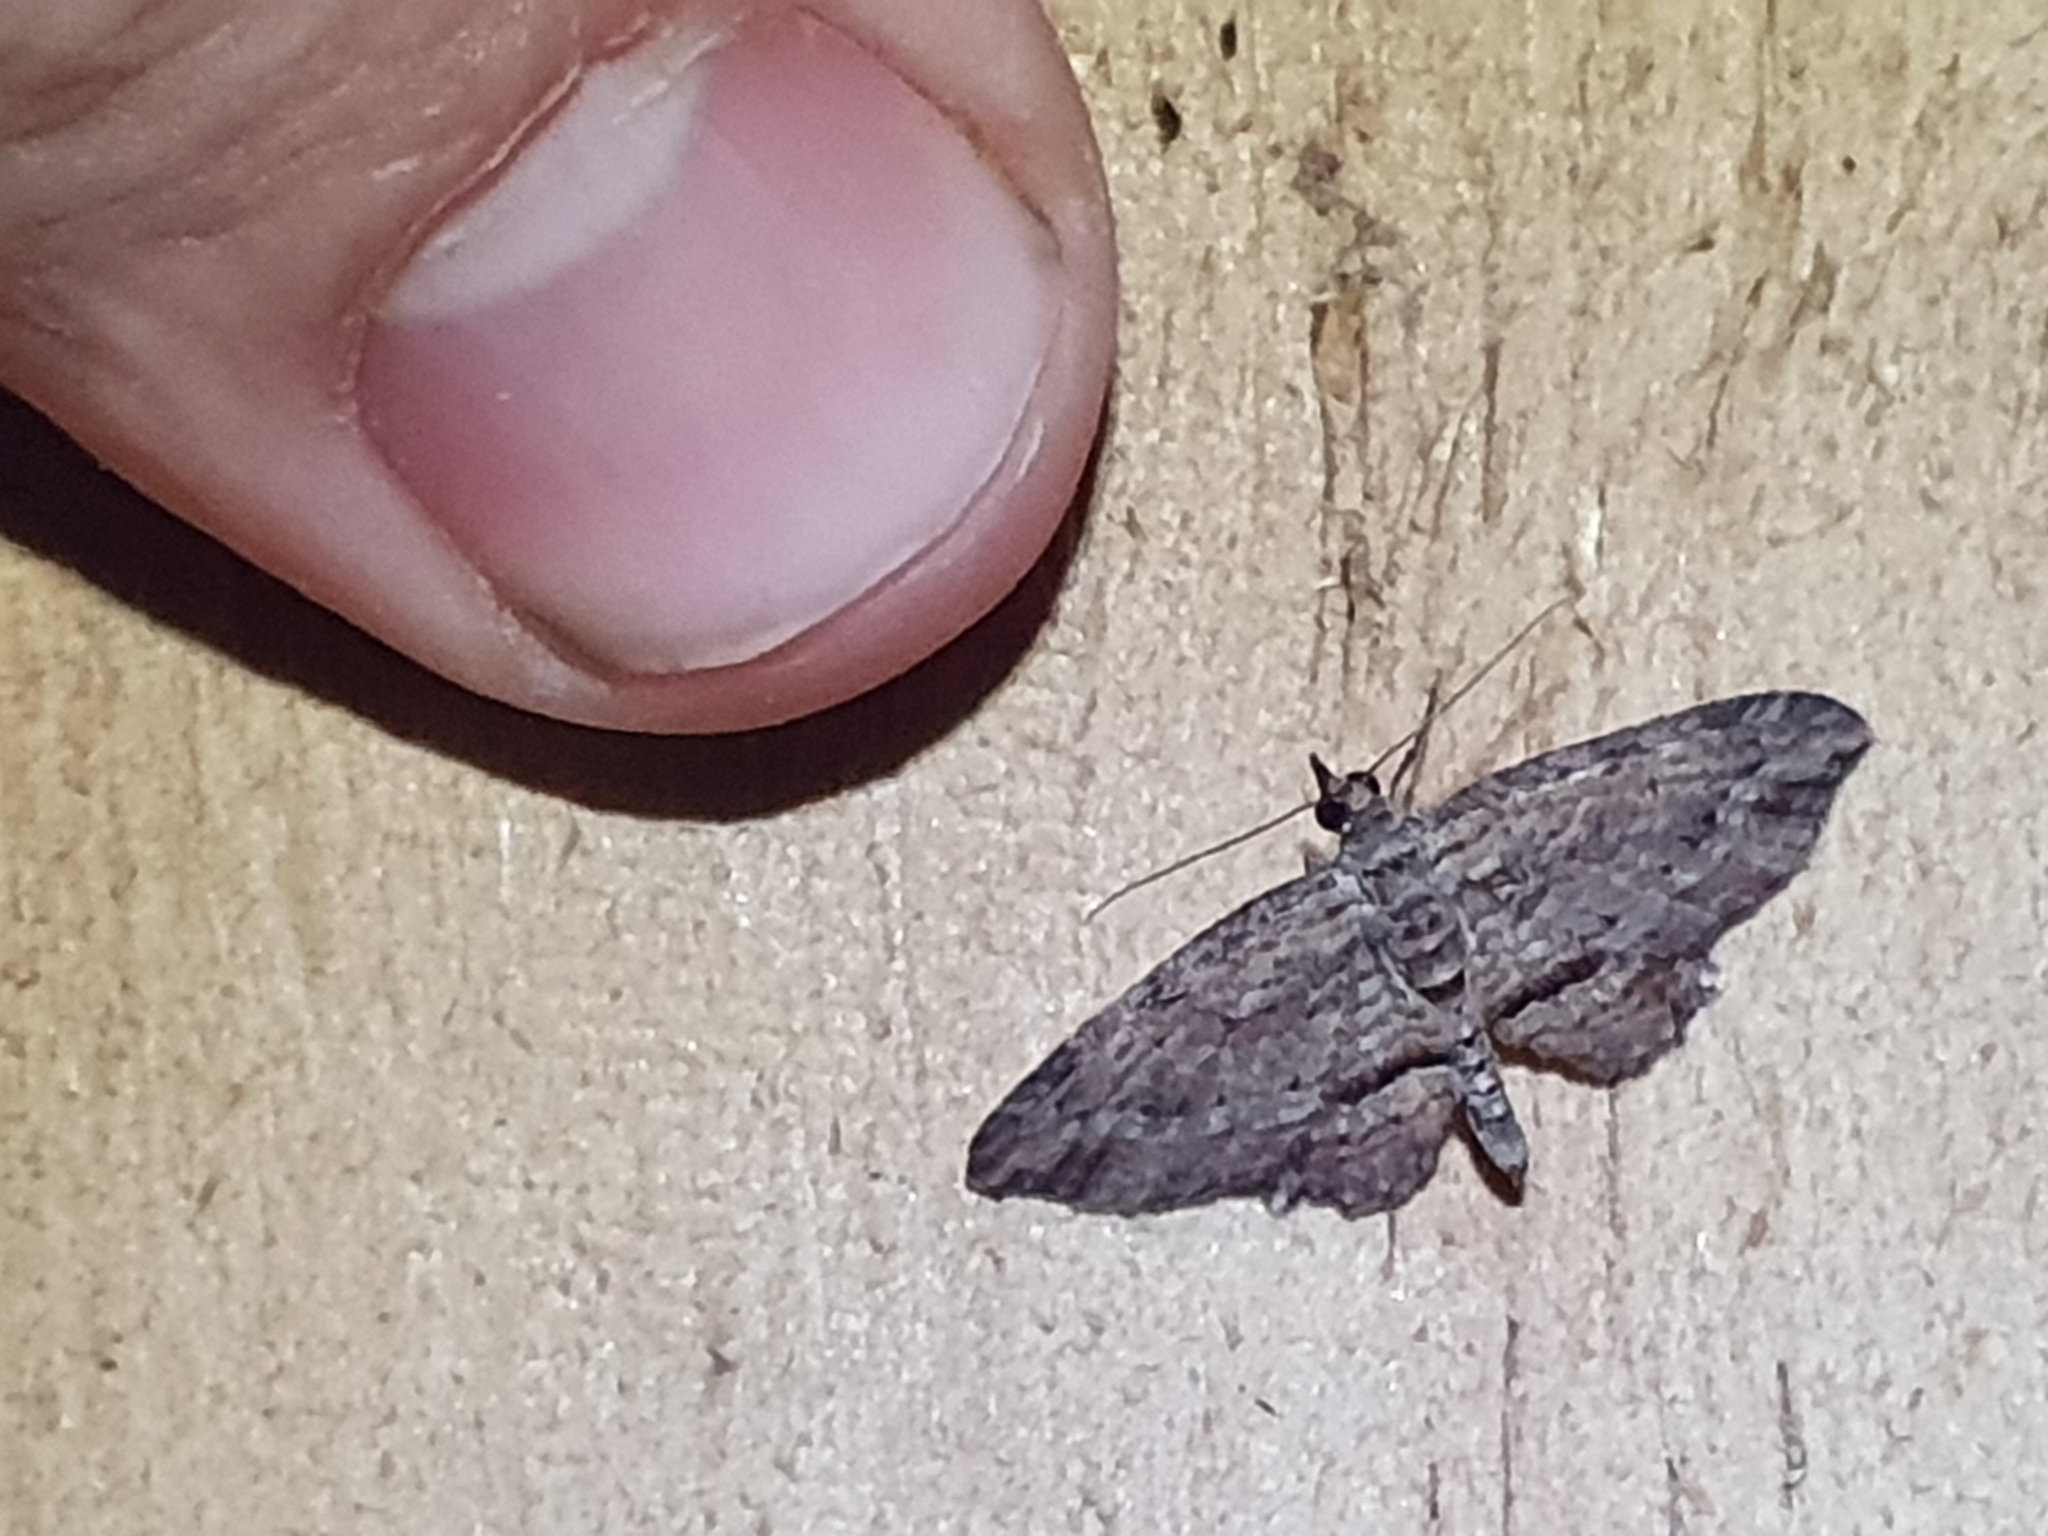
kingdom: Animalia
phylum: Arthropoda
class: Insecta
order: Lepidoptera
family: Geometridae
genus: Chloroclystis
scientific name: Chloroclystis filata
